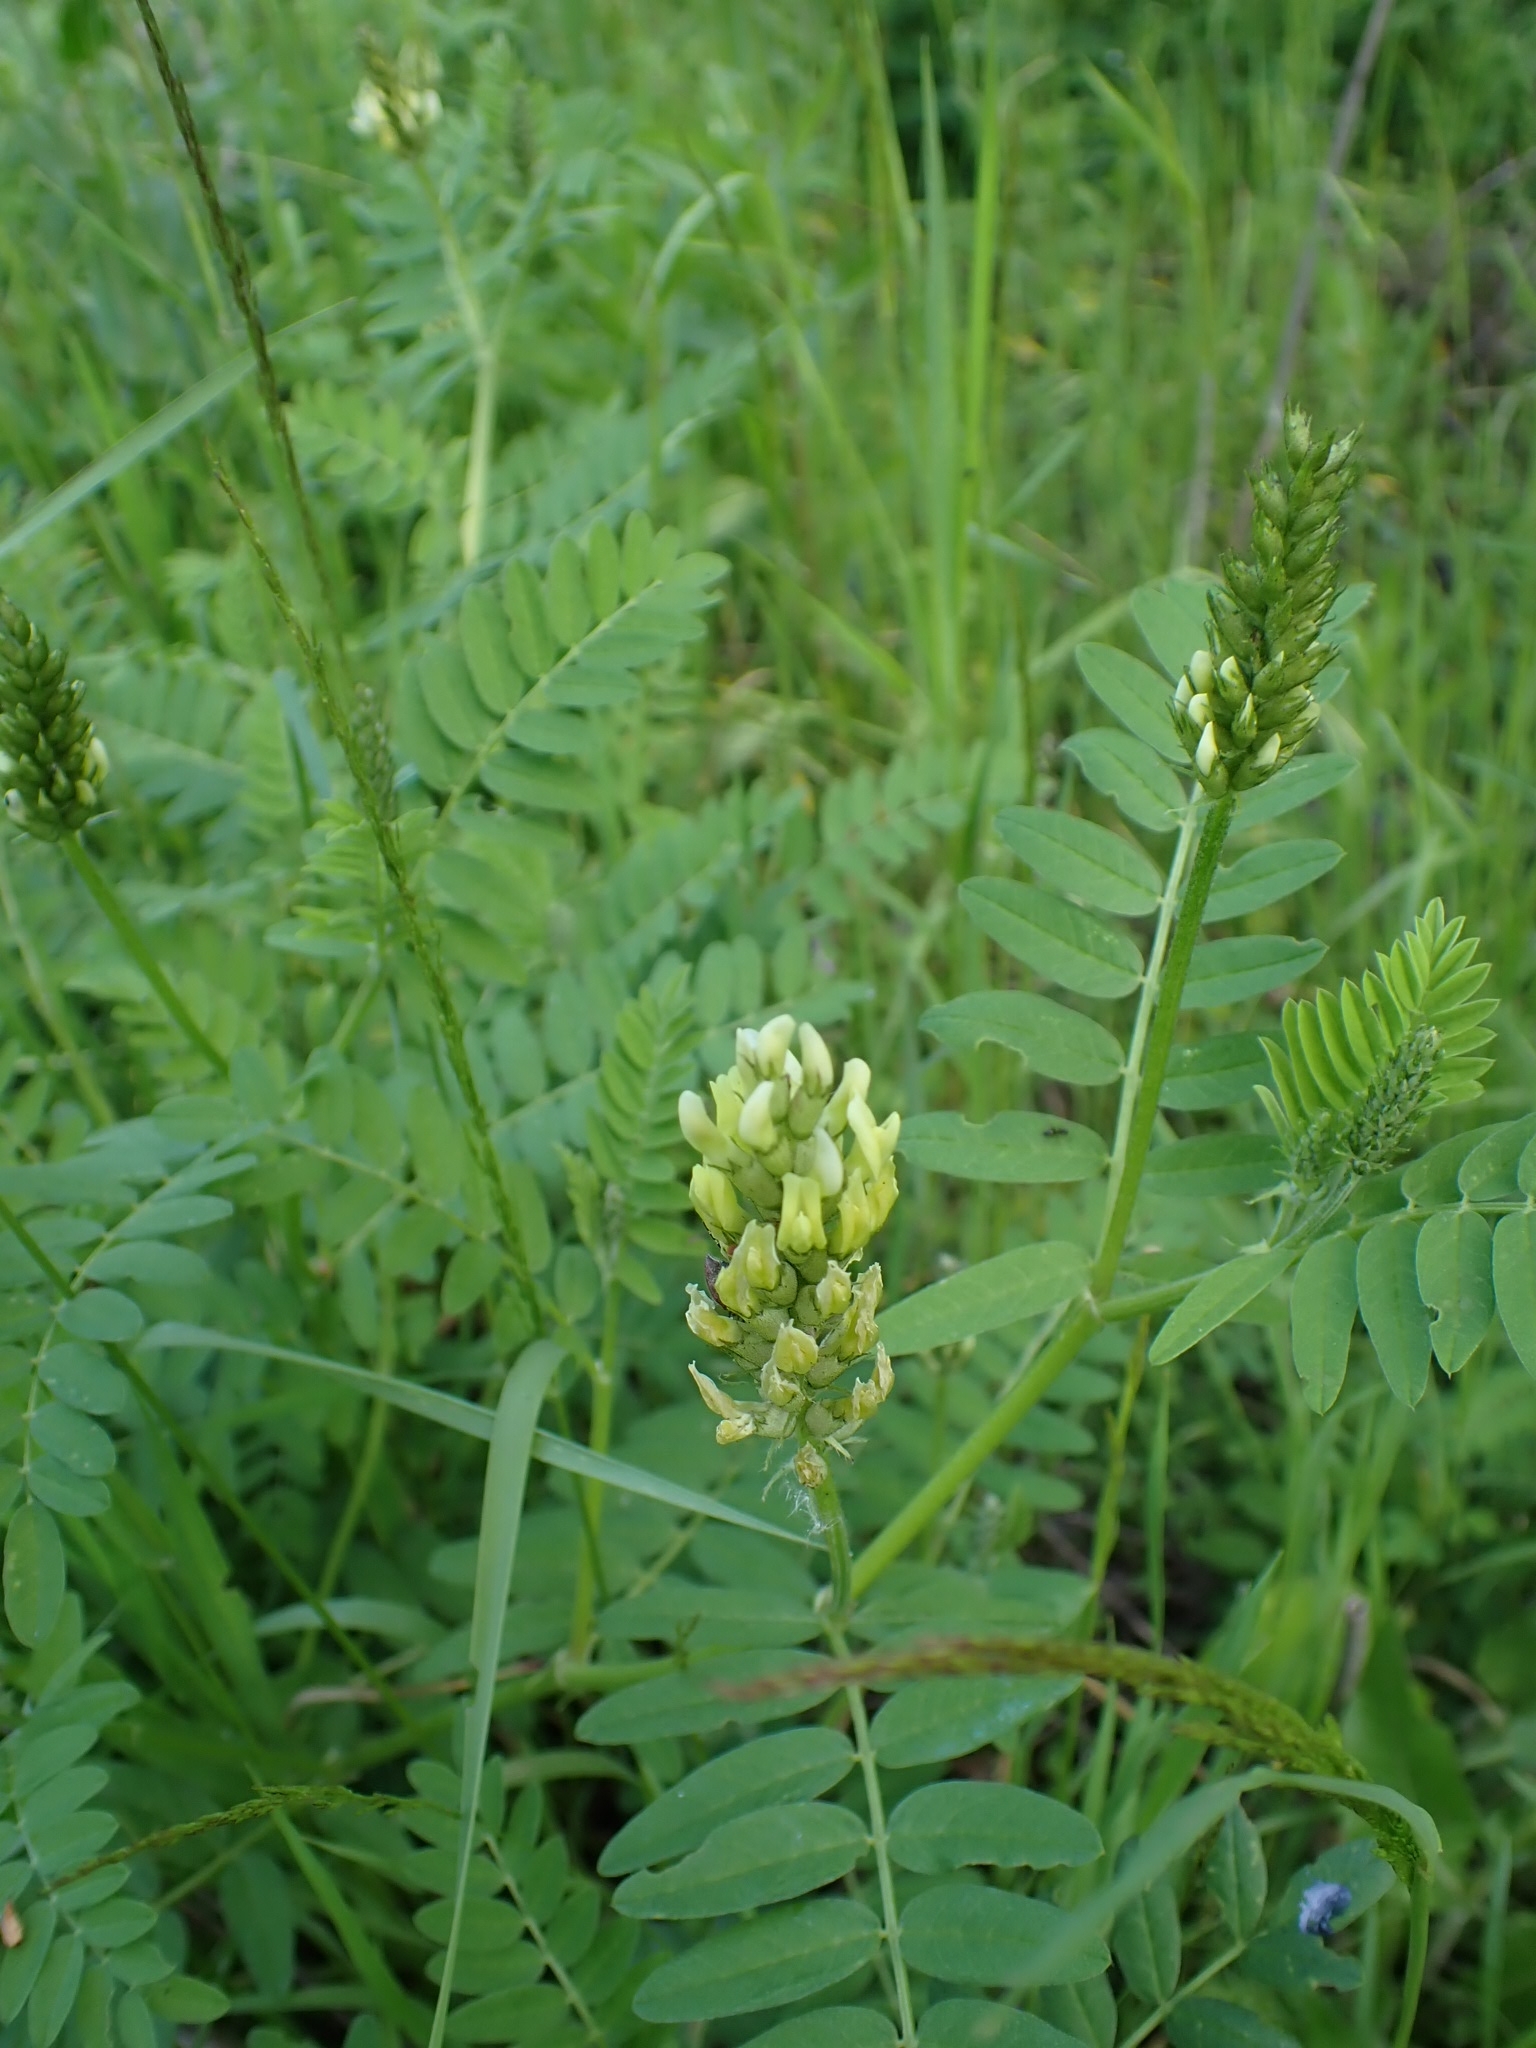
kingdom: Plantae
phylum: Tracheophyta
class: Magnoliopsida
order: Fabales
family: Fabaceae
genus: Astragalus
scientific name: Astragalus cicer
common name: Chick-pea milk-vetch
